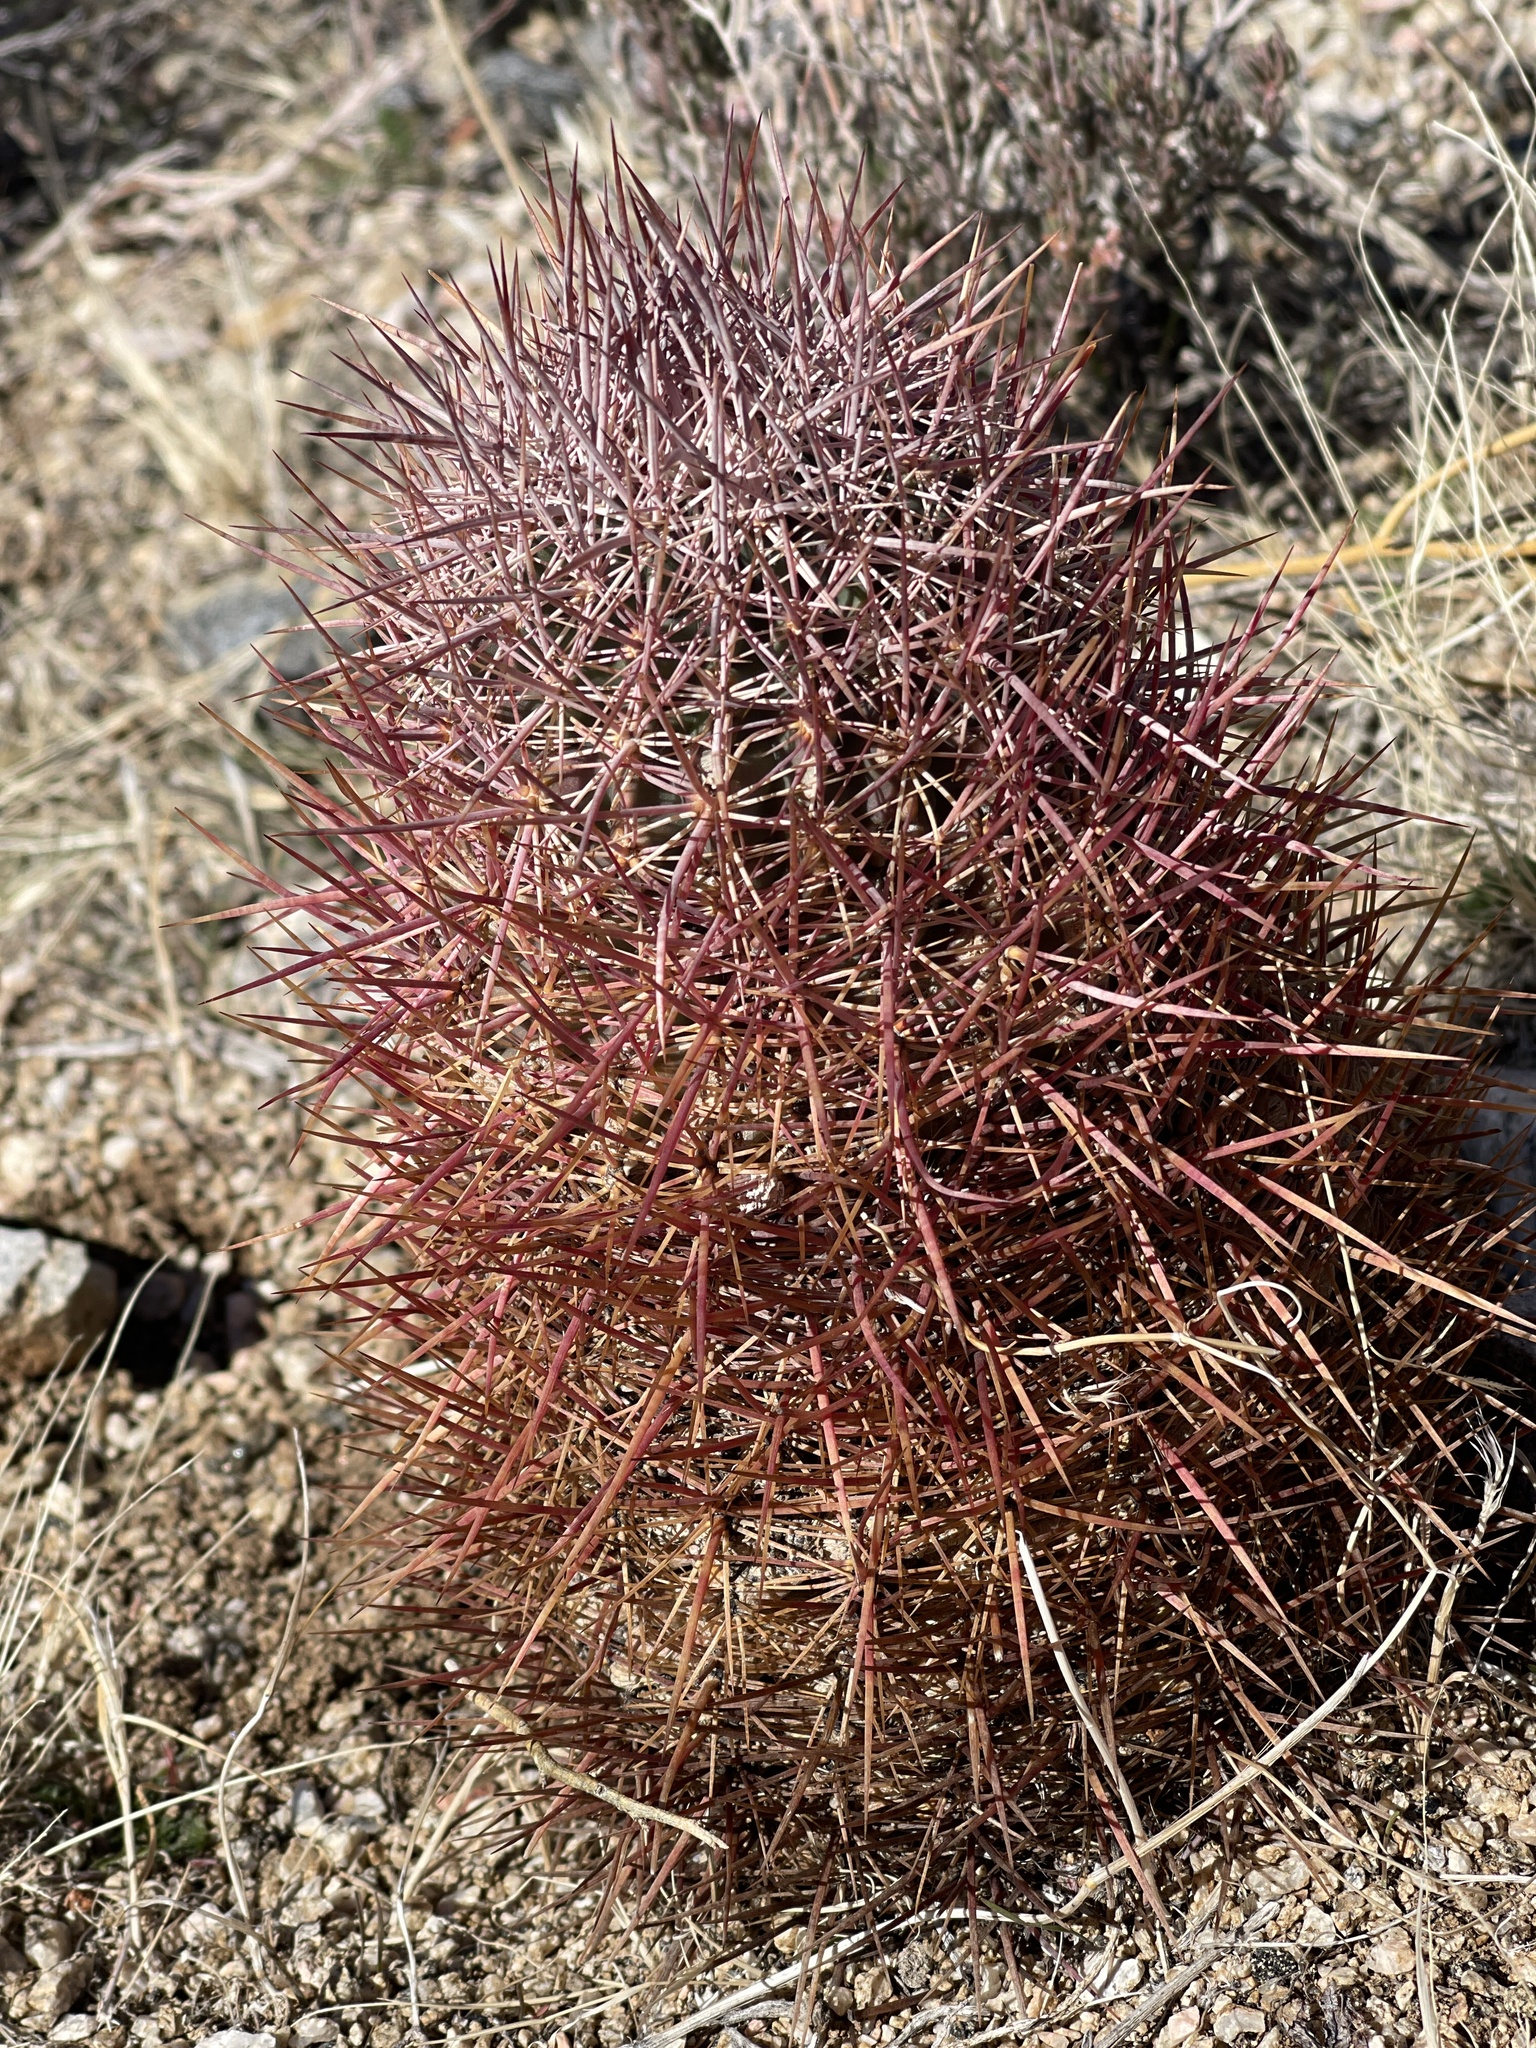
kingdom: Plantae
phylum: Tracheophyta
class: Magnoliopsida
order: Caryophyllales
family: Cactaceae
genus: Sclerocactus
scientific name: Sclerocactus johnsonii
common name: Eight-spine fishhook cactus
